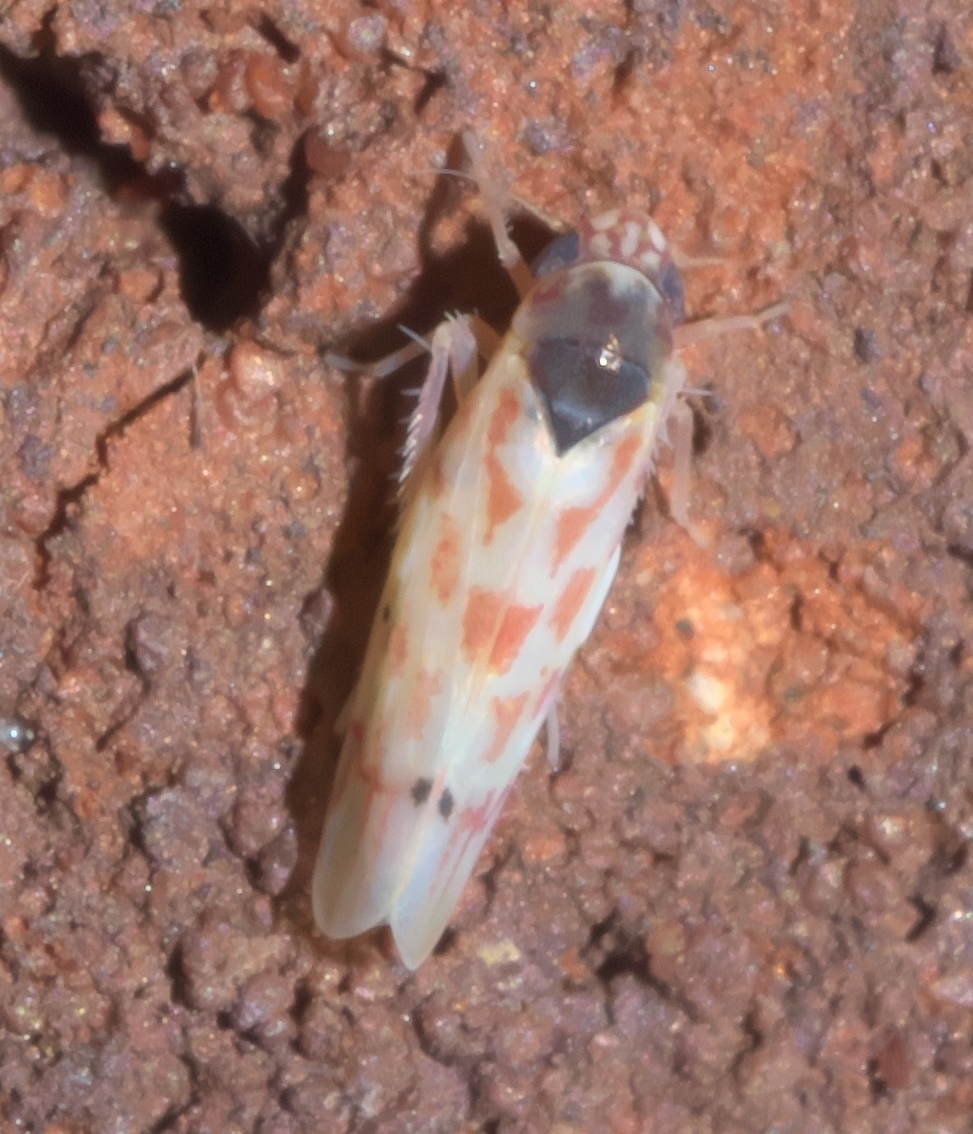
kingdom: Animalia
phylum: Arthropoda
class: Insecta
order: Hemiptera
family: Cicadellidae
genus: Eratoneura
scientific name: Eratoneura ardens
